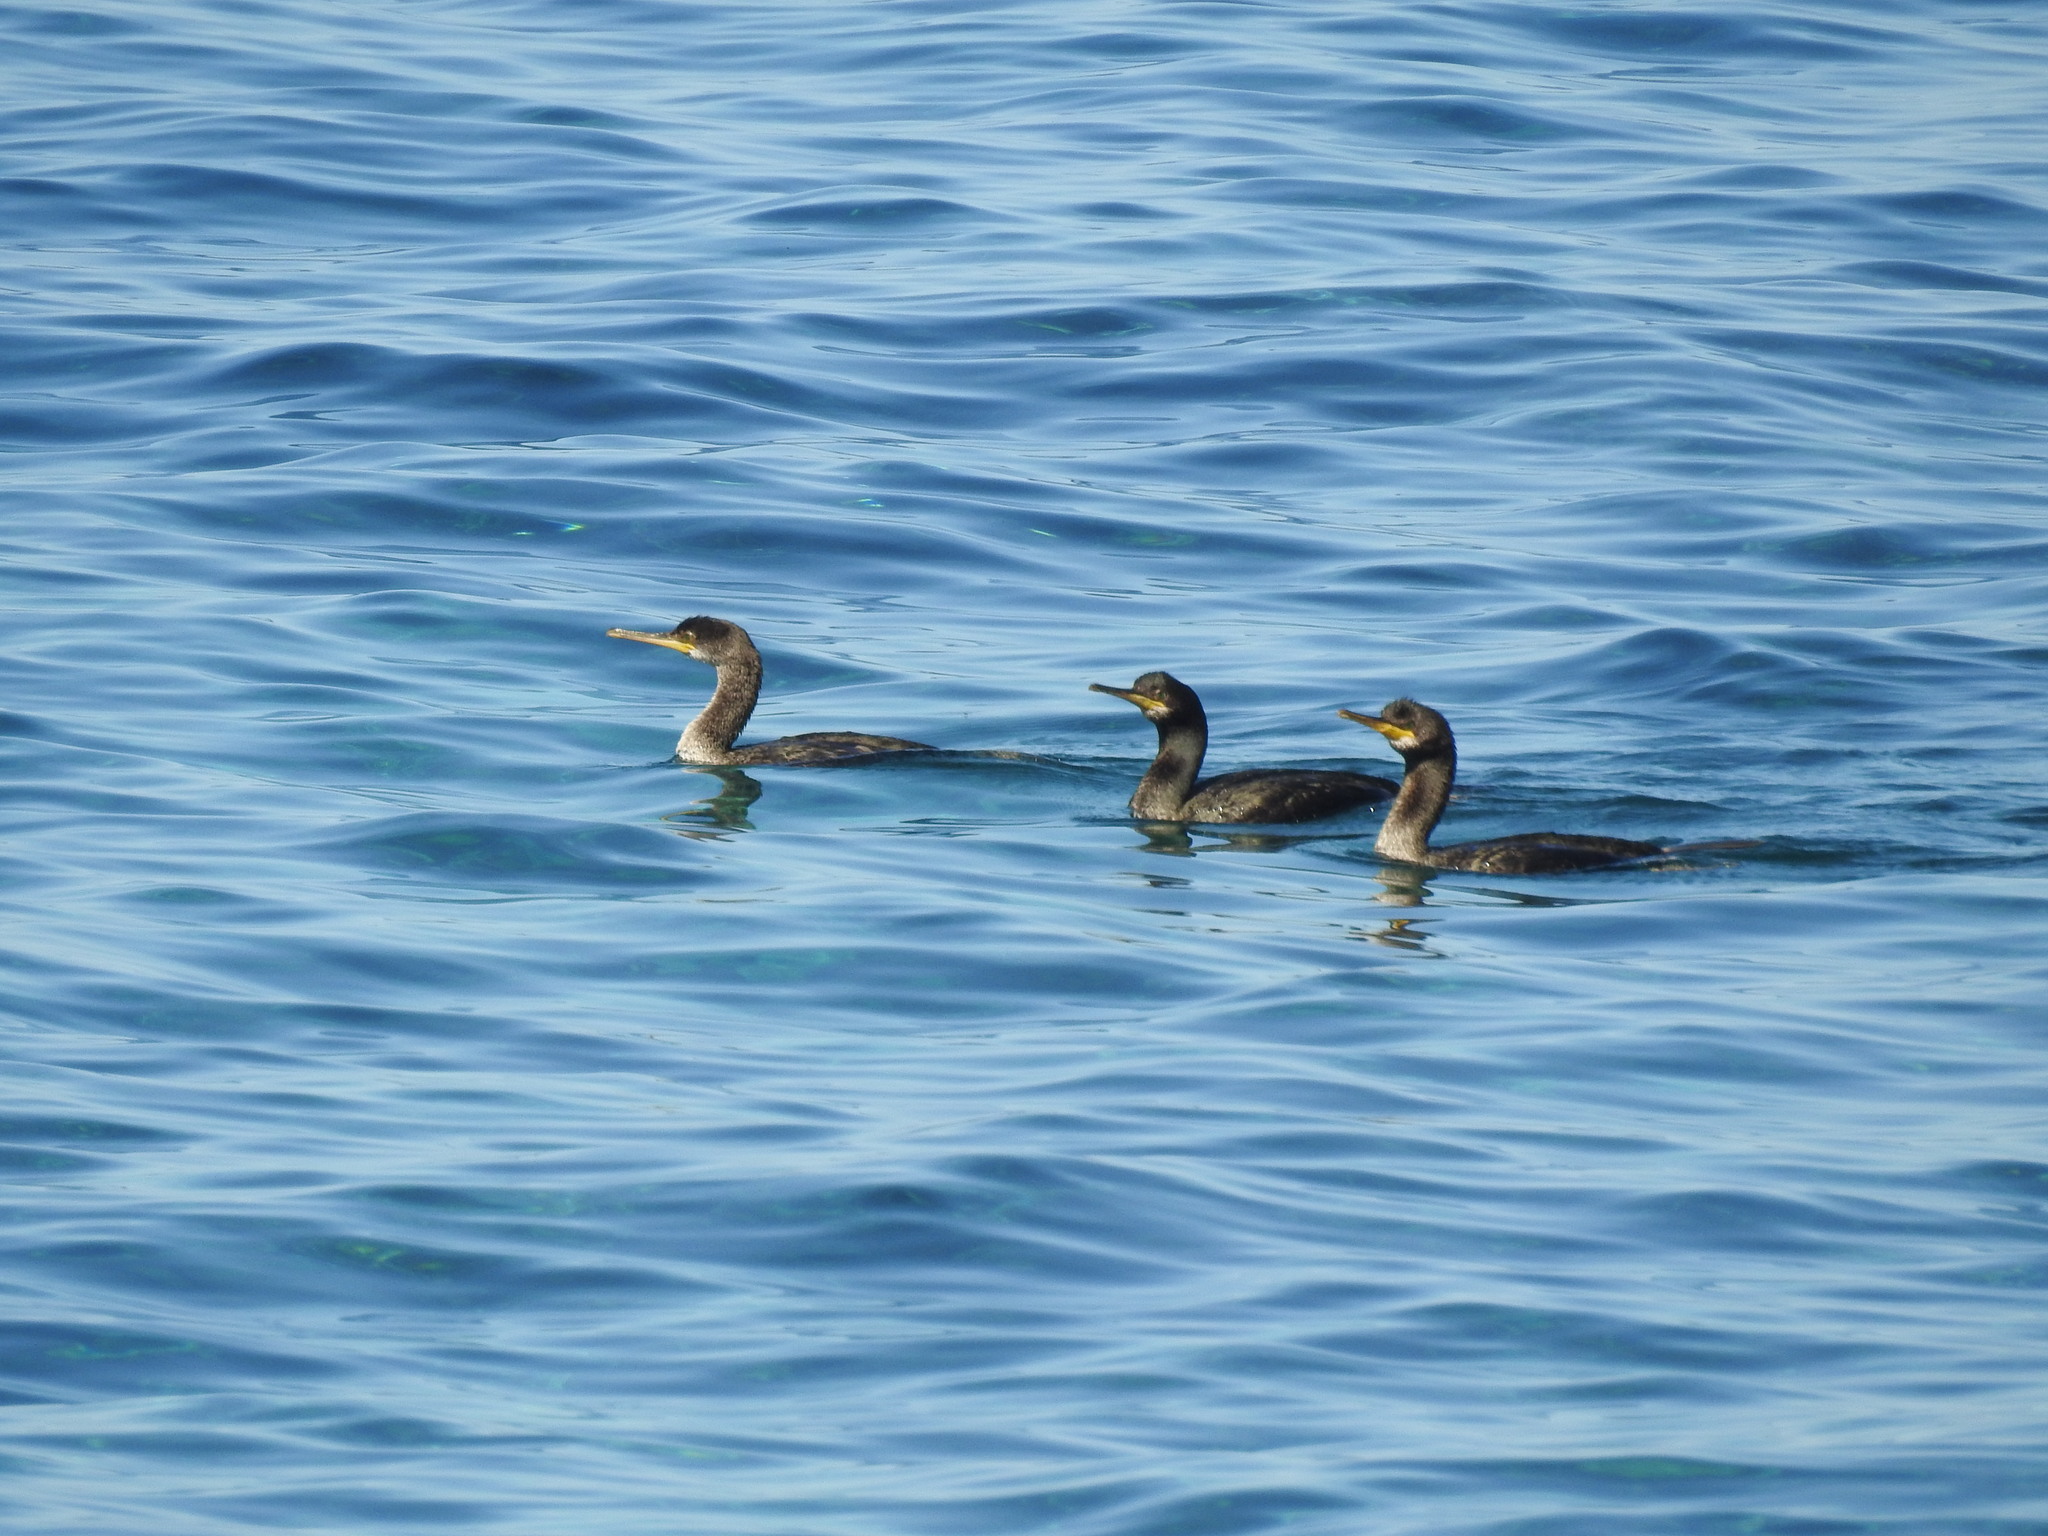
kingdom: Animalia
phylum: Chordata
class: Aves
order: Suliformes
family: Phalacrocoracidae
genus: Phalacrocorax
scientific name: Phalacrocorax aristotelis
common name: European shag
